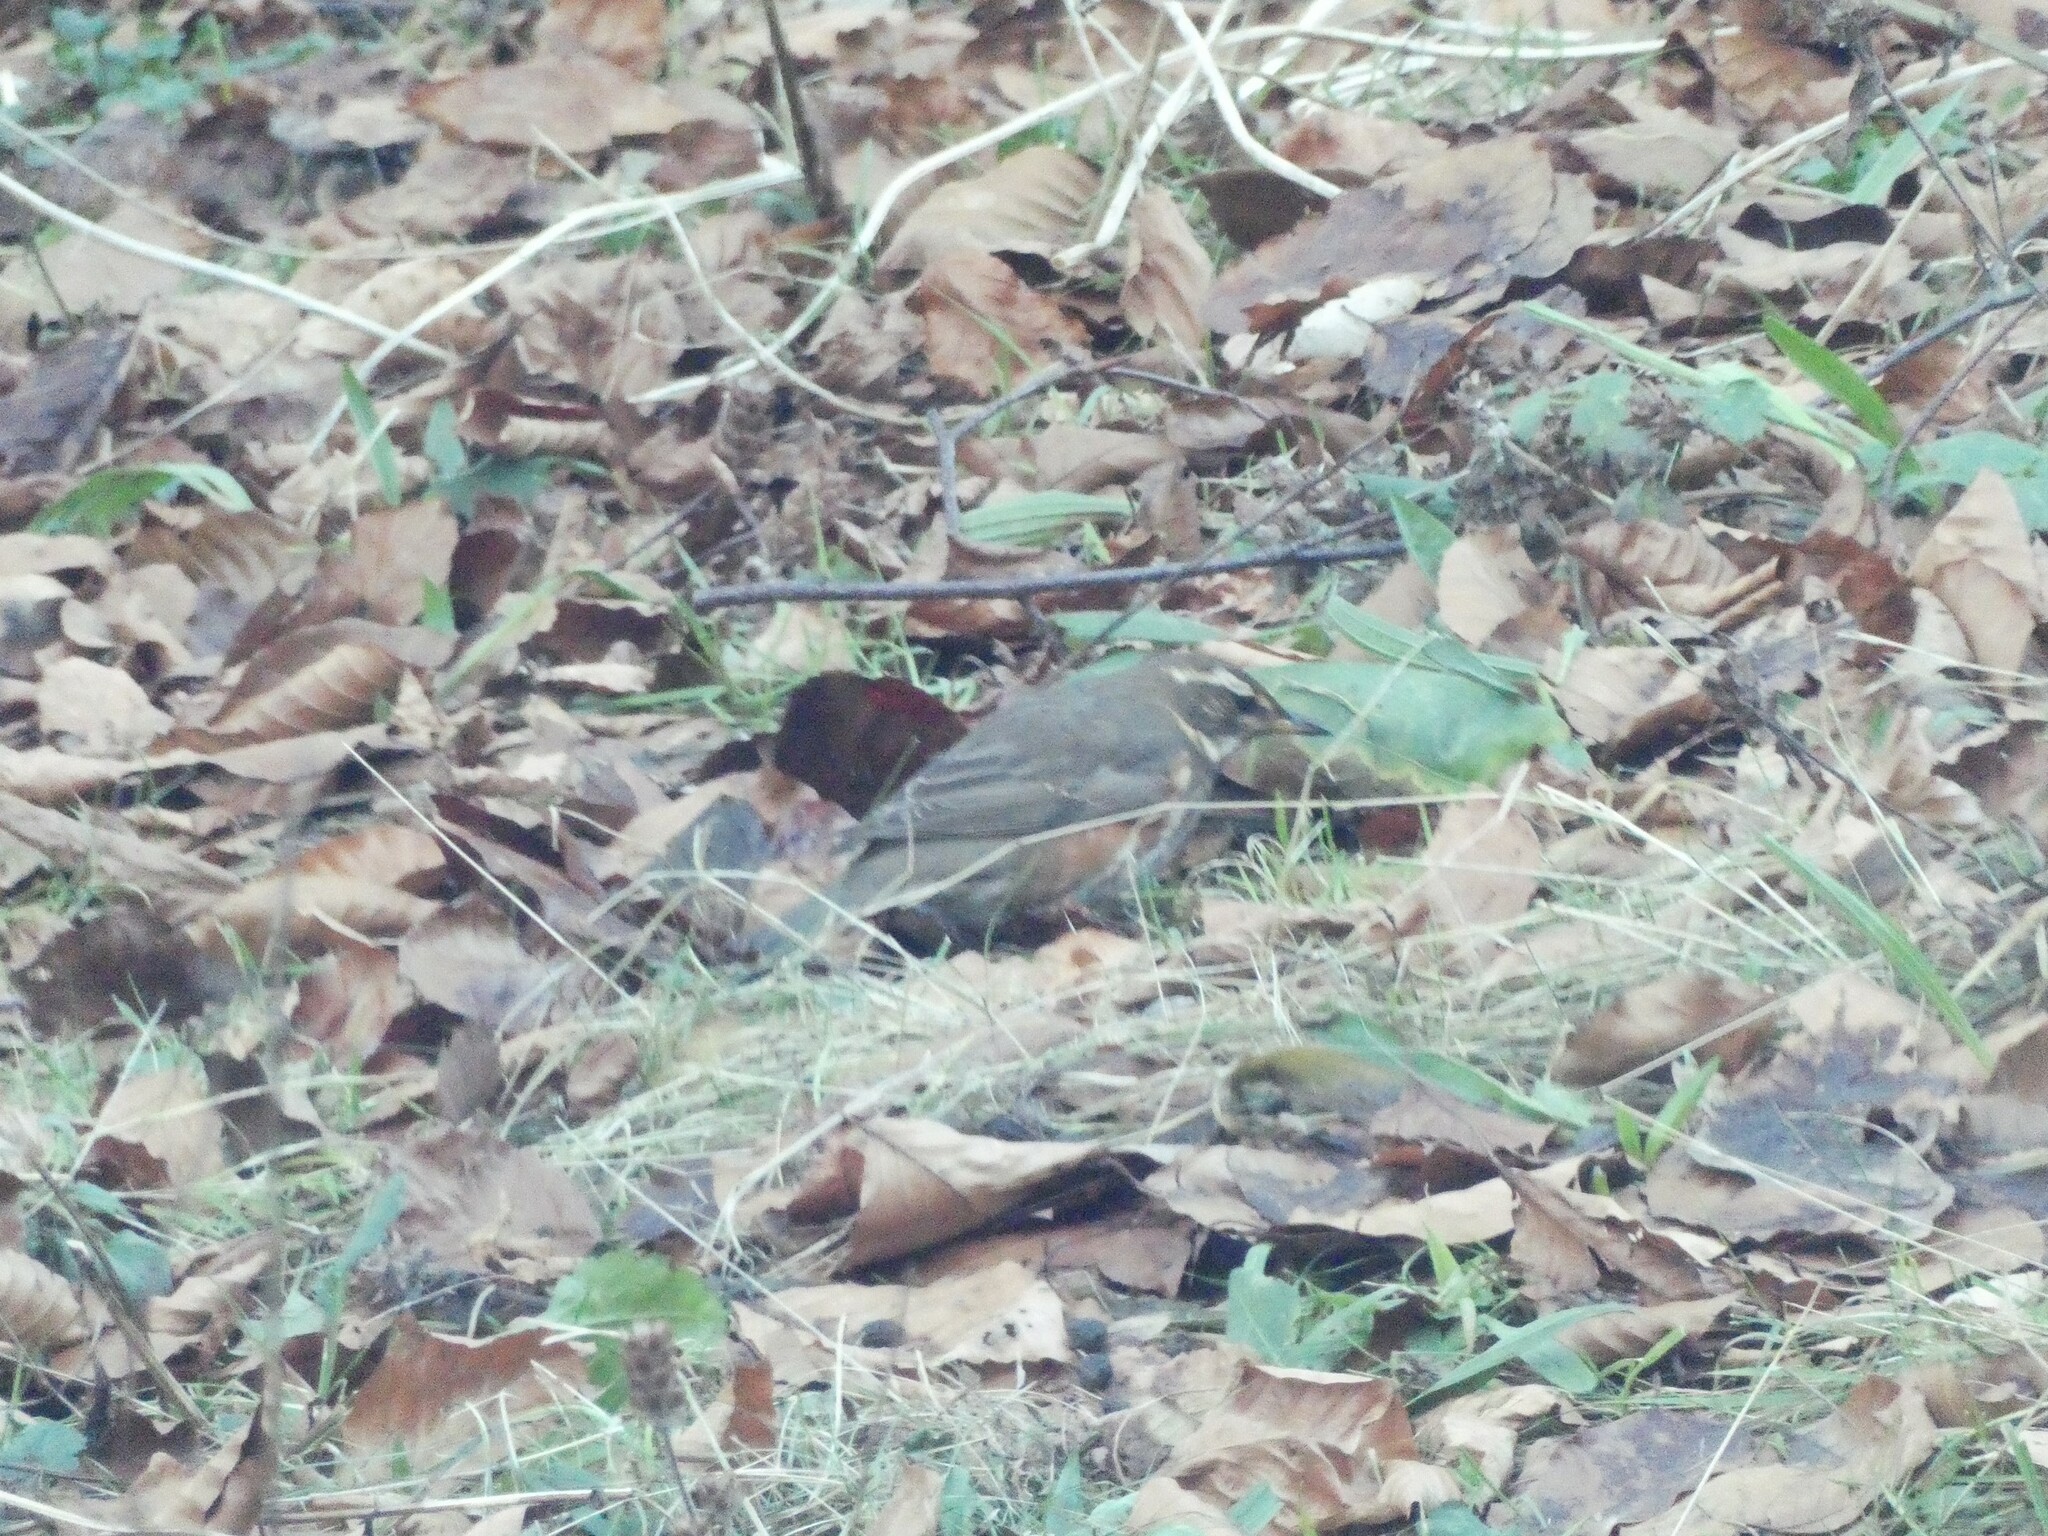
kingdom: Animalia
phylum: Chordata
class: Aves
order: Passeriformes
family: Turdidae
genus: Turdus
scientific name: Turdus iliacus
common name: Redwing
